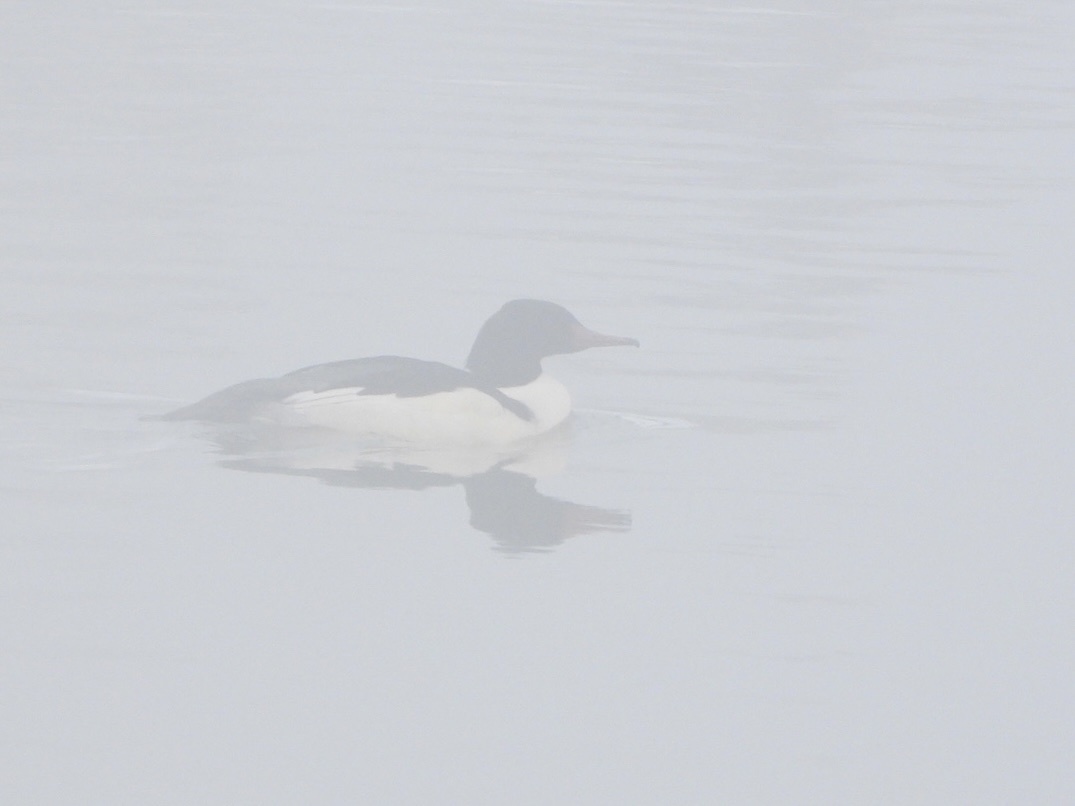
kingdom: Animalia
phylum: Chordata
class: Aves
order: Anseriformes
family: Anatidae
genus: Mergus
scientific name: Mergus merganser
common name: Common merganser
